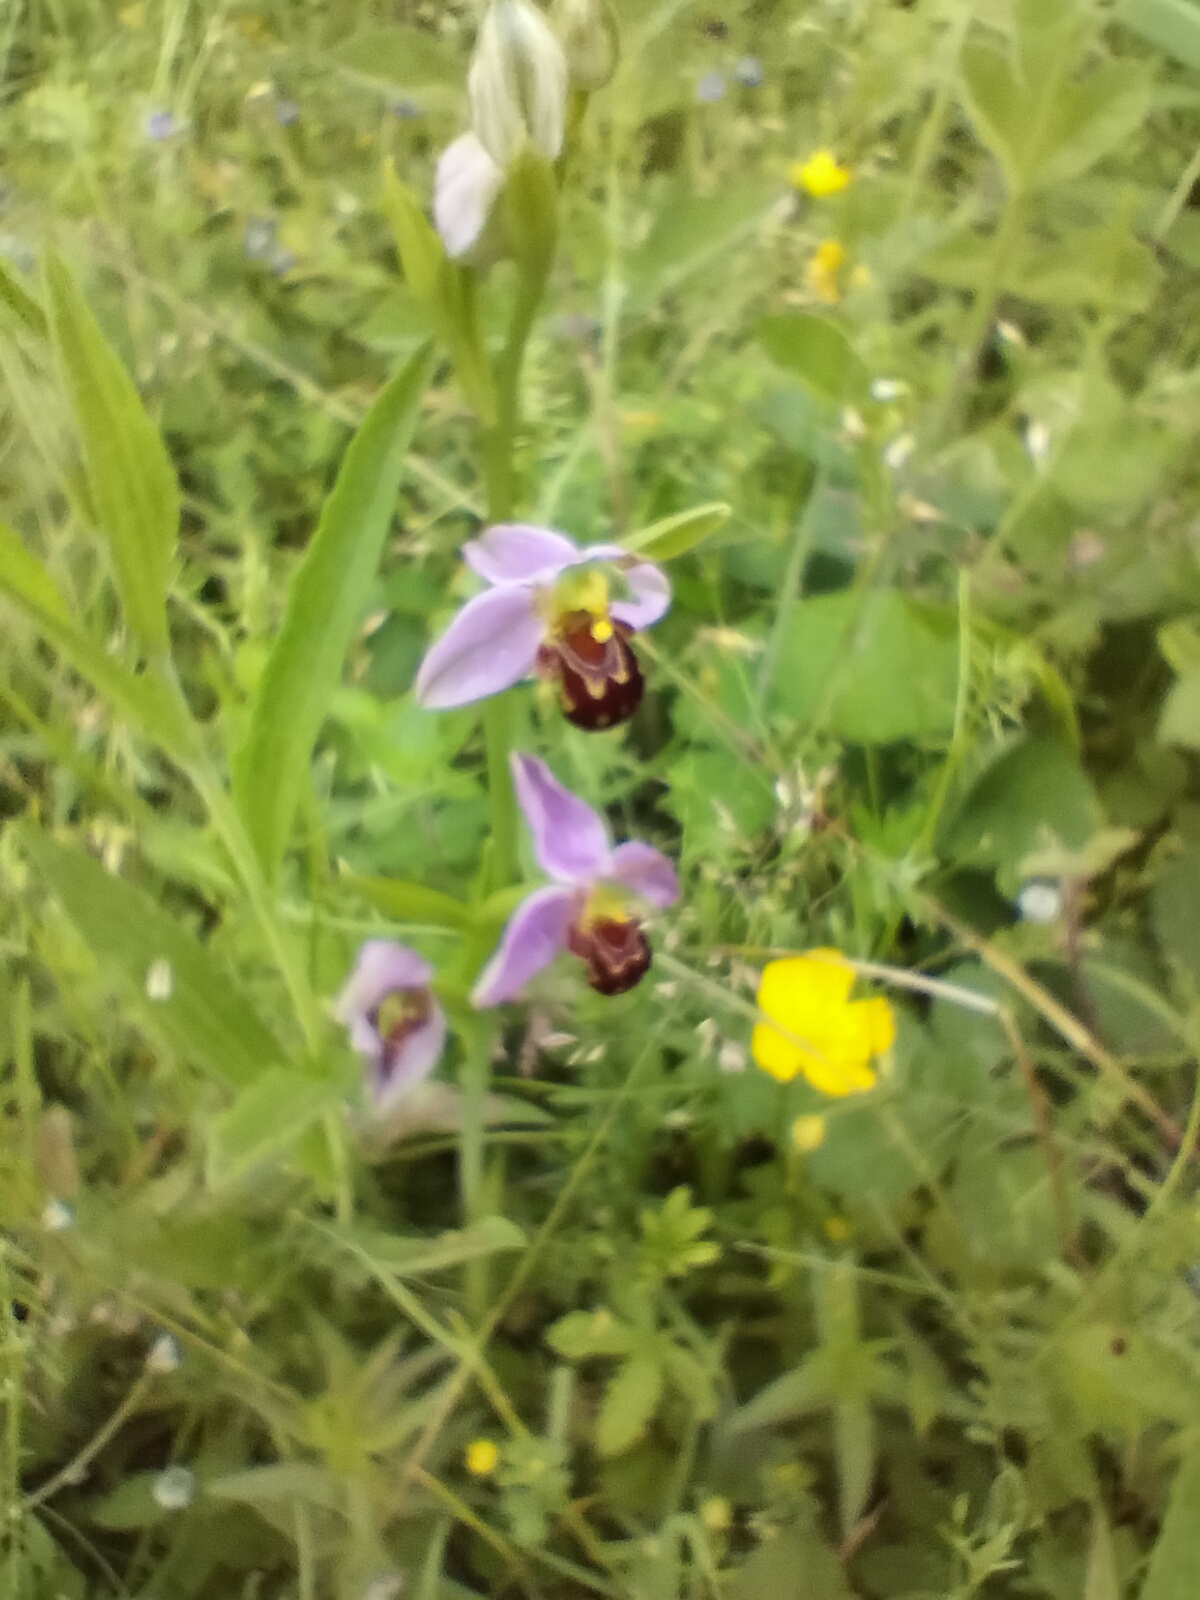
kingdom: Plantae
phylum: Tracheophyta
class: Liliopsida
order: Asparagales
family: Orchidaceae
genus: Ophrys
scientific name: Ophrys apifera
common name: Bee orchid
